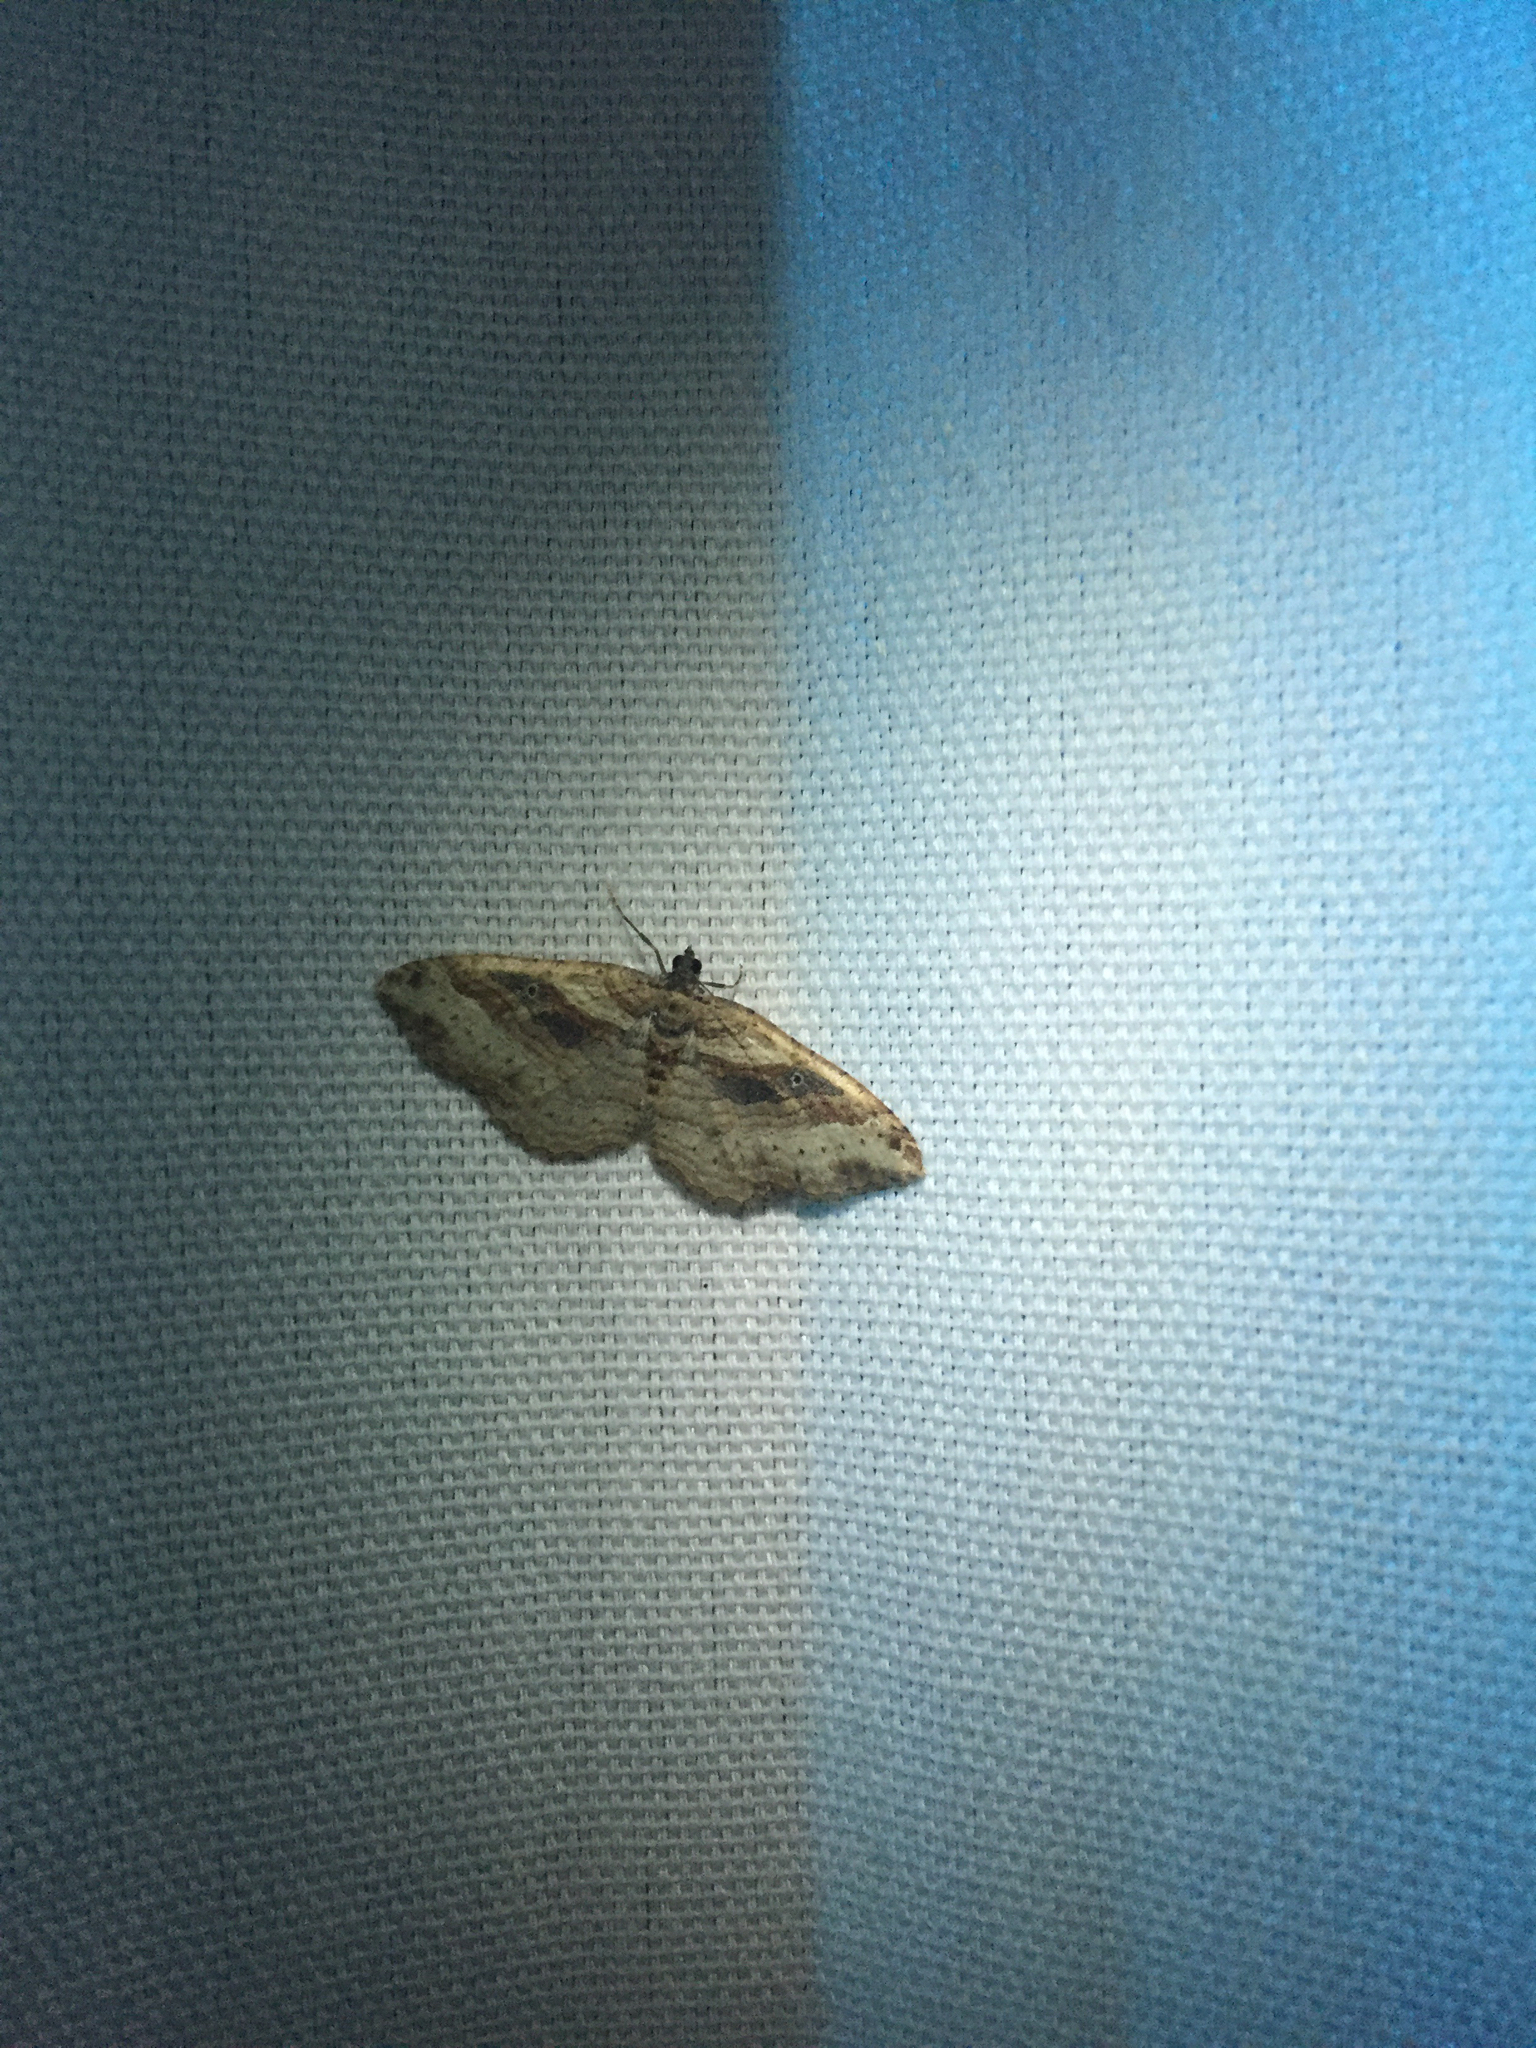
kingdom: Animalia
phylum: Arthropoda
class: Insecta
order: Lepidoptera
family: Geometridae
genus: Costaconvexa
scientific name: Costaconvexa centrostrigaria
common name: Bent-line carpet
